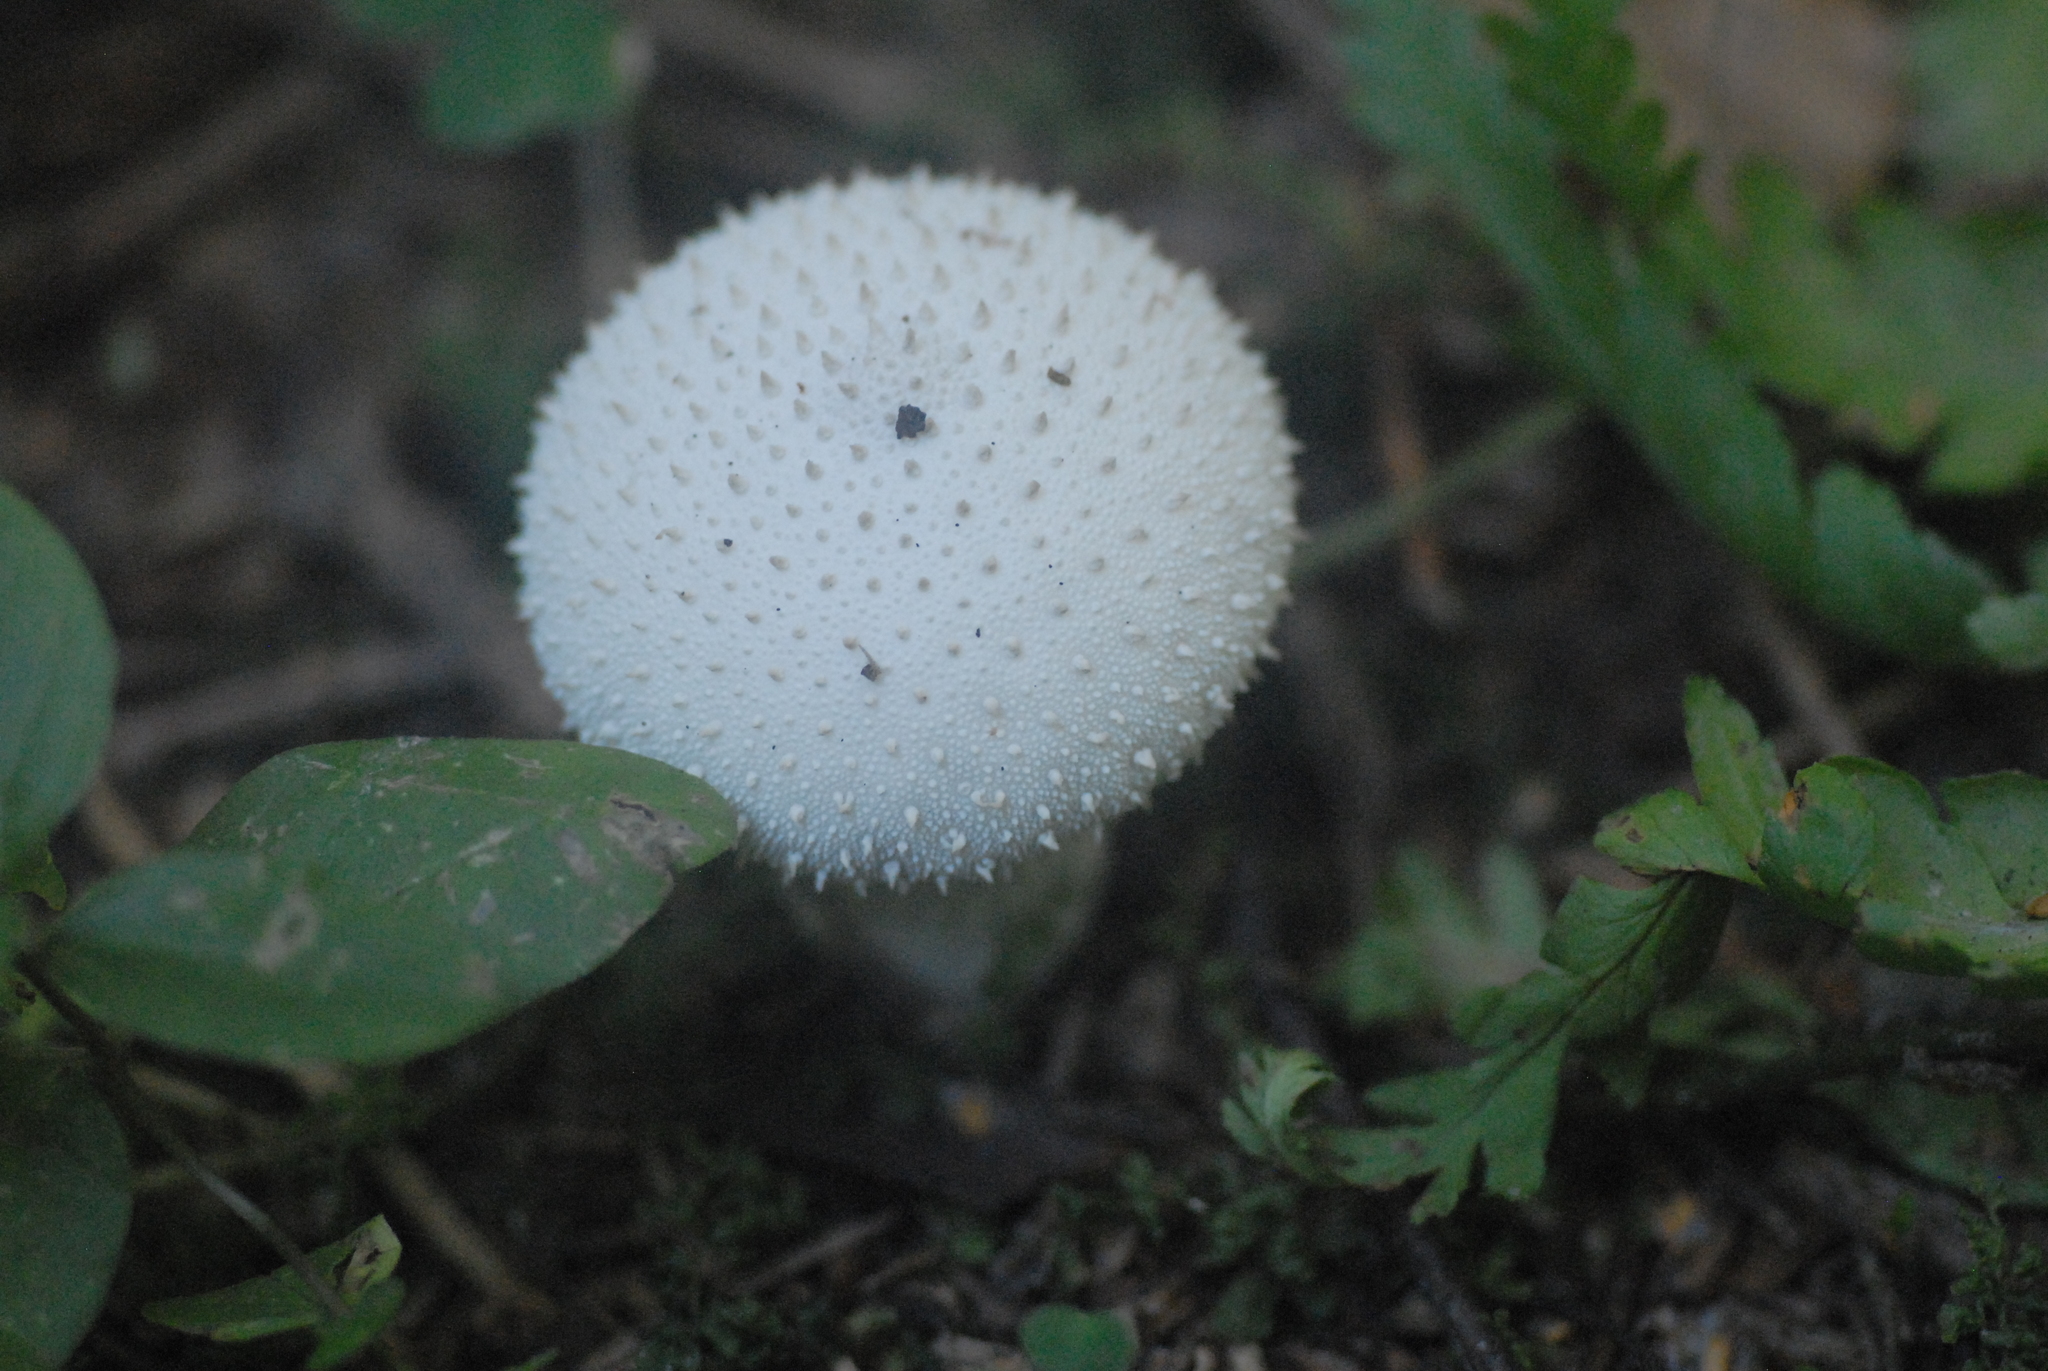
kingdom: Fungi
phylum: Basidiomycota
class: Agaricomycetes
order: Agaricales
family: Lycoperdaceae
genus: Lycoperdon
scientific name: Lycoperdon perlatum
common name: Common puffball
